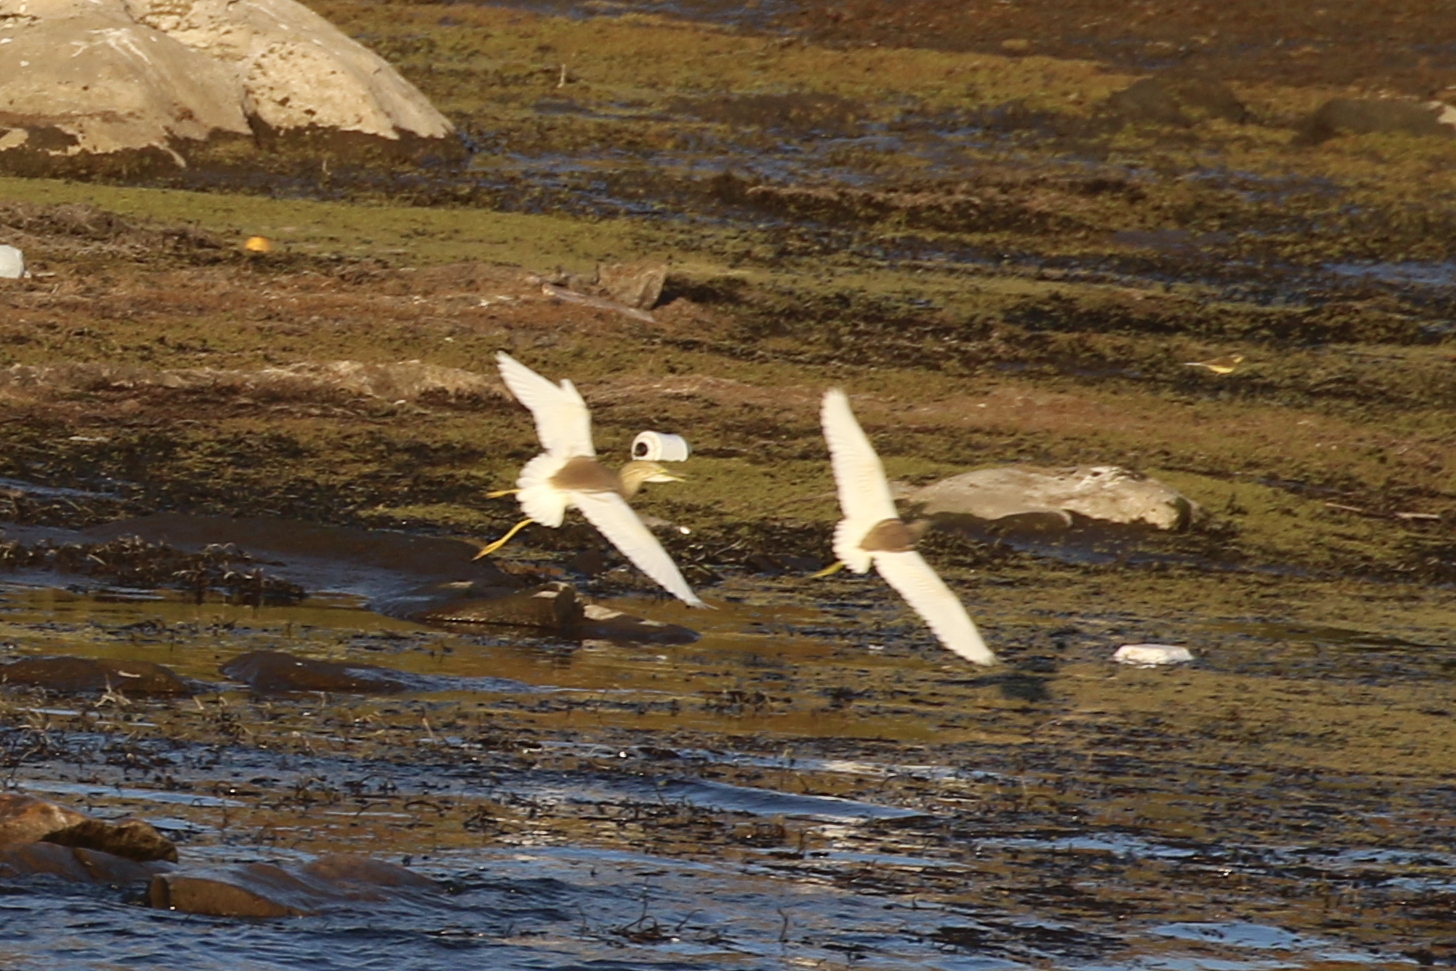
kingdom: Animalia
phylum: Chordata
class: Aves
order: Pelecaniformes
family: Ardeidae
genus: Ardeola
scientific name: Ardeola ralloides
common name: Squacco heron
